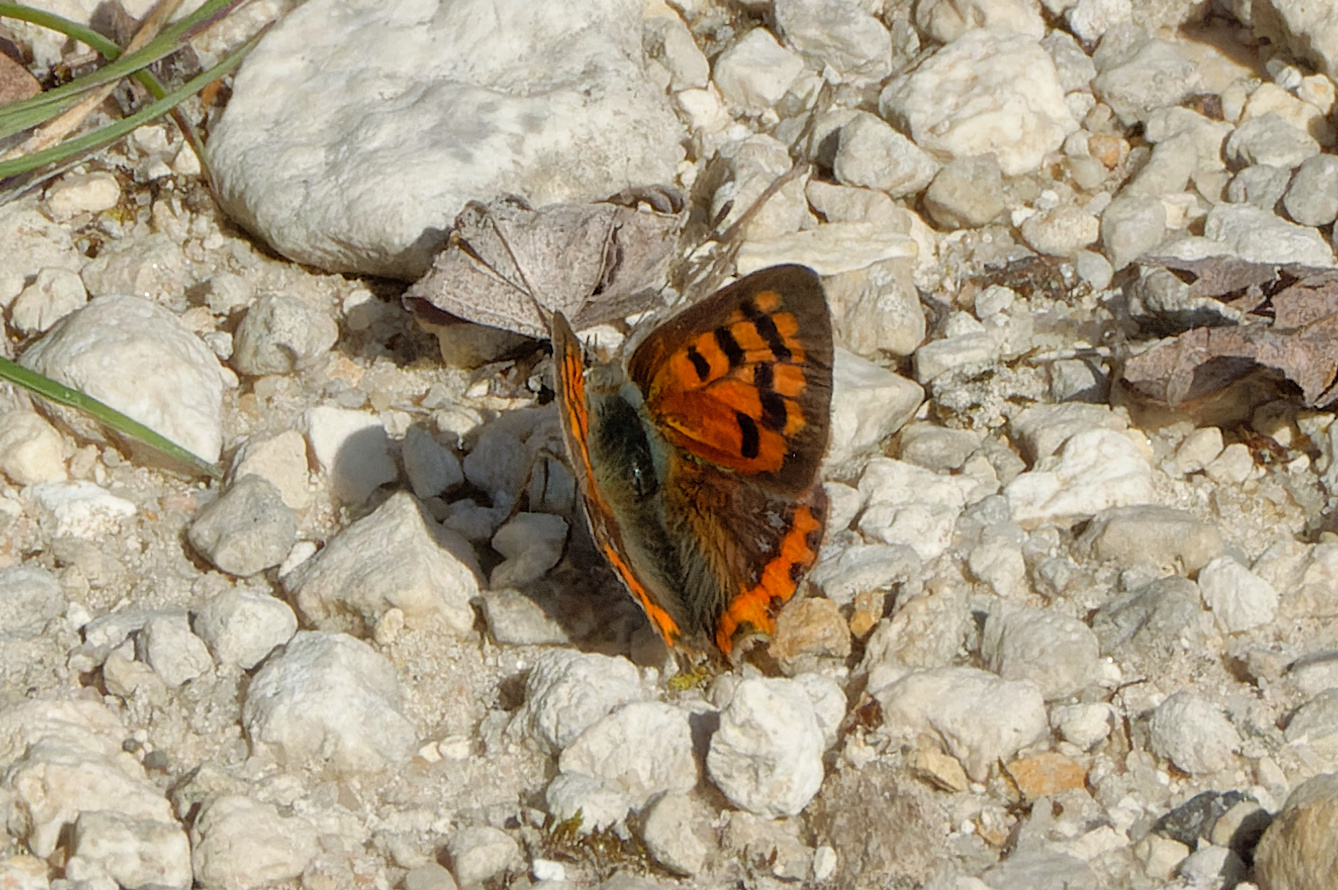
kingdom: Animalia
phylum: Arthropoda
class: Insecta
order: Lepidoptera
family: Lycaenidae
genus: Lycaena
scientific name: Lycaena phlaeas
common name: Small copper
